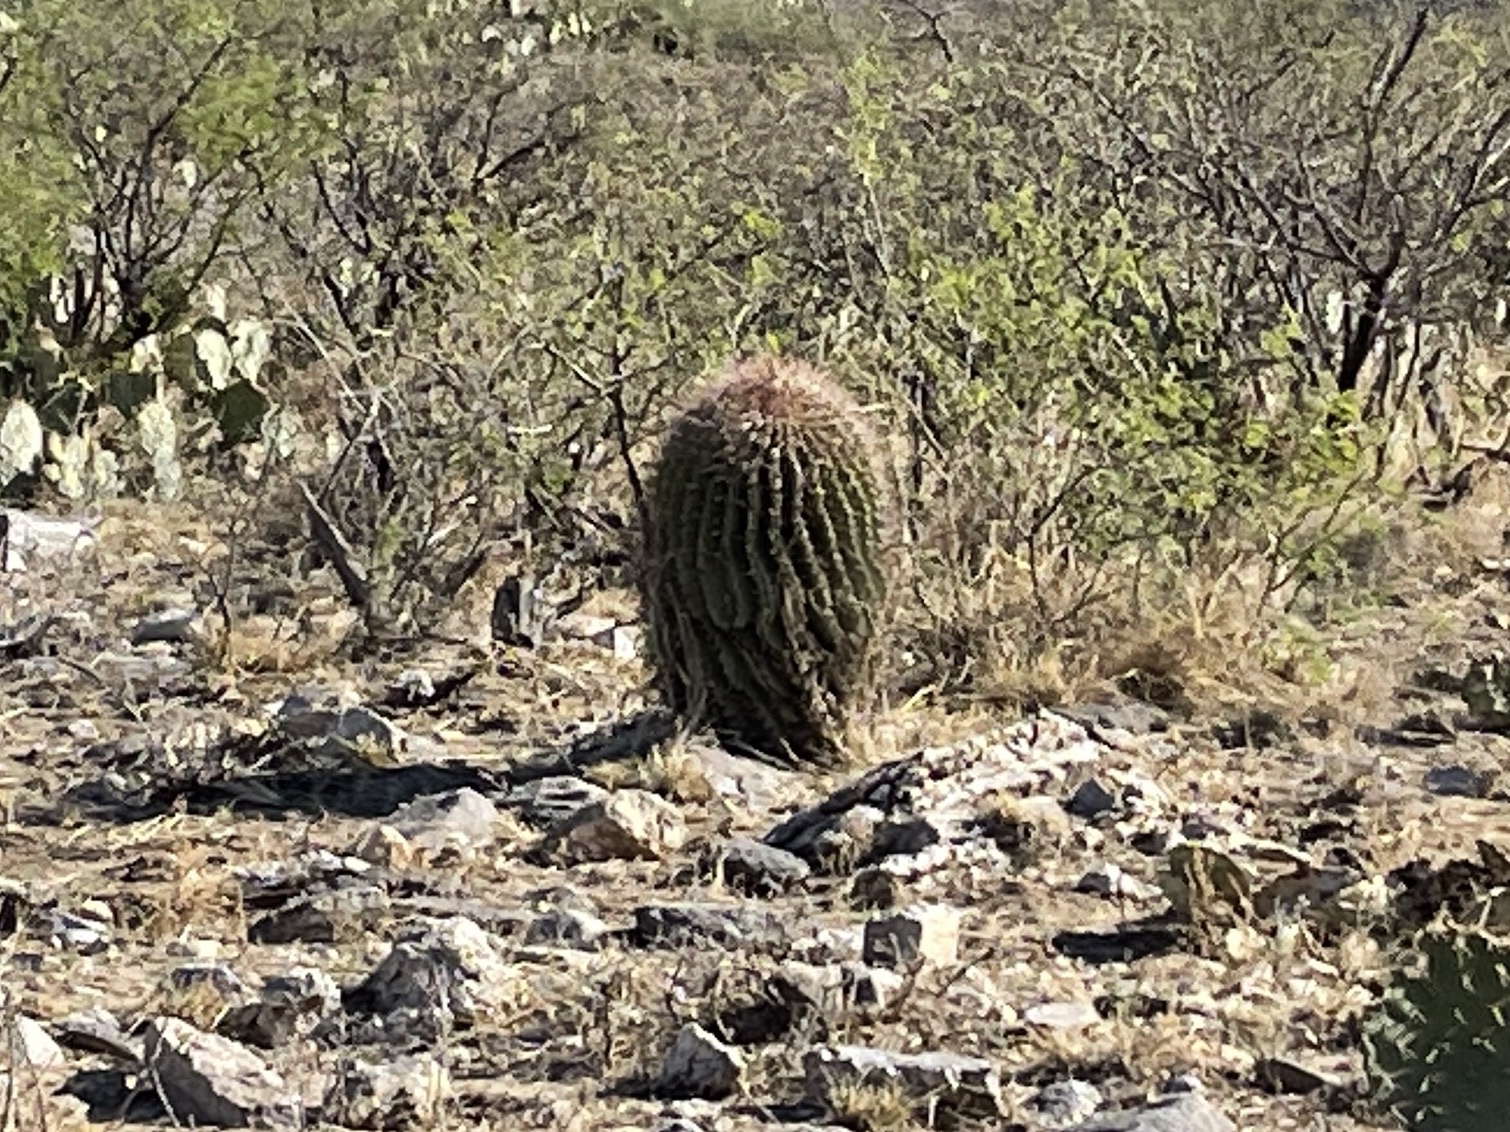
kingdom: Plantae
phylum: Tracheophyta
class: Magnoliopsida
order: Caryophyllales
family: Cactaceae
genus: Ferocactus
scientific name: Ferocactus wislizeni
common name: Candy barrel cactus
